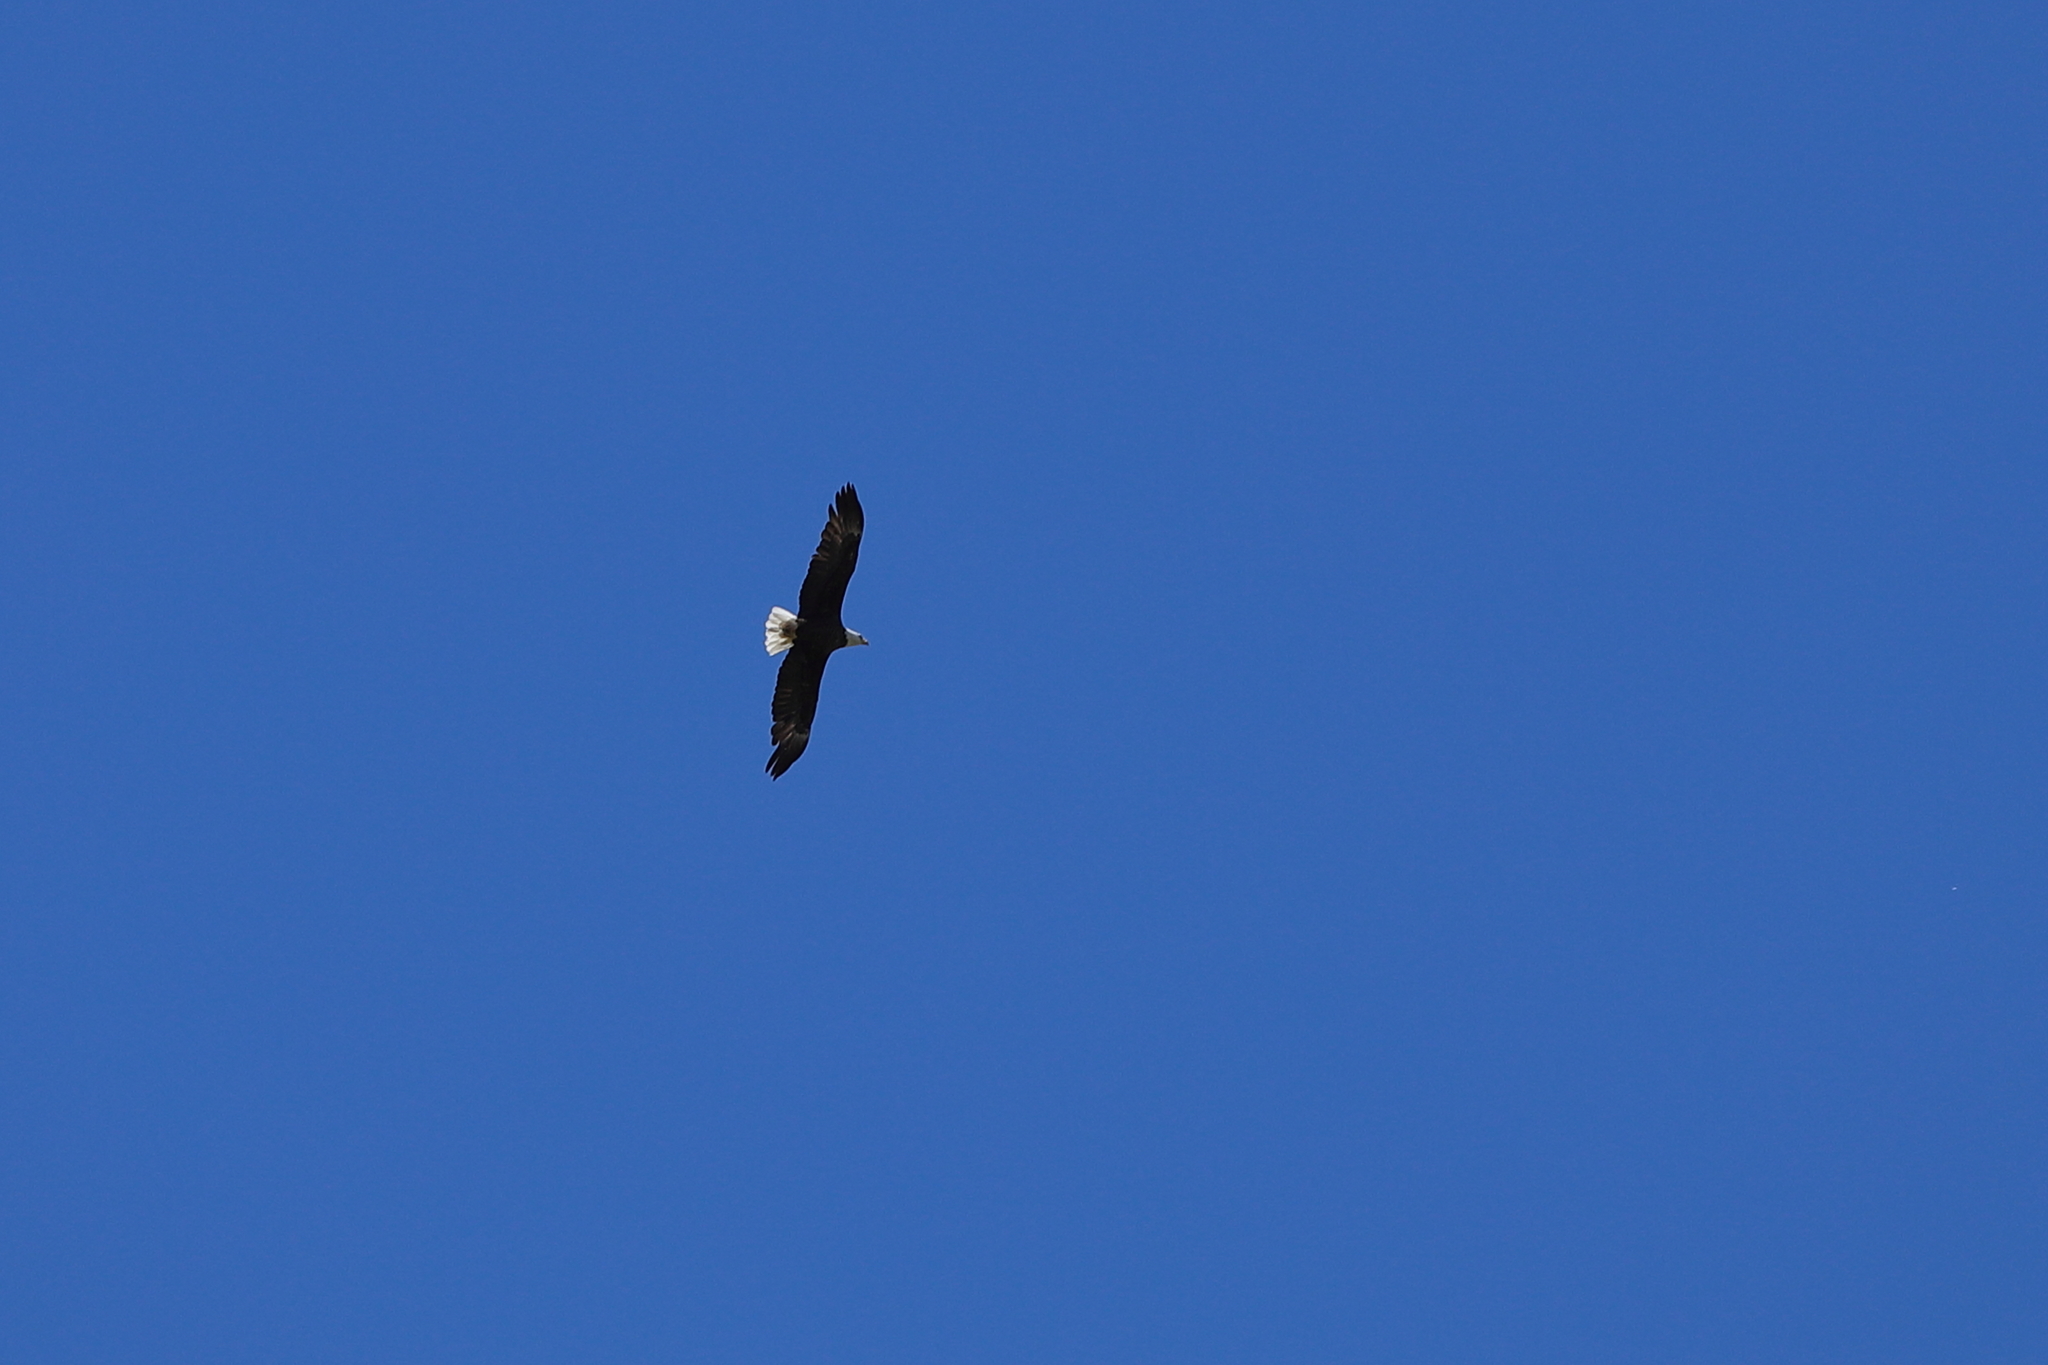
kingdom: Animalia
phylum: Chordata
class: Aves
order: Accipitriformes
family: Accipitridae
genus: Haliaeetus
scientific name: Haliaeetus leucocephalus
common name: Bald eagle
